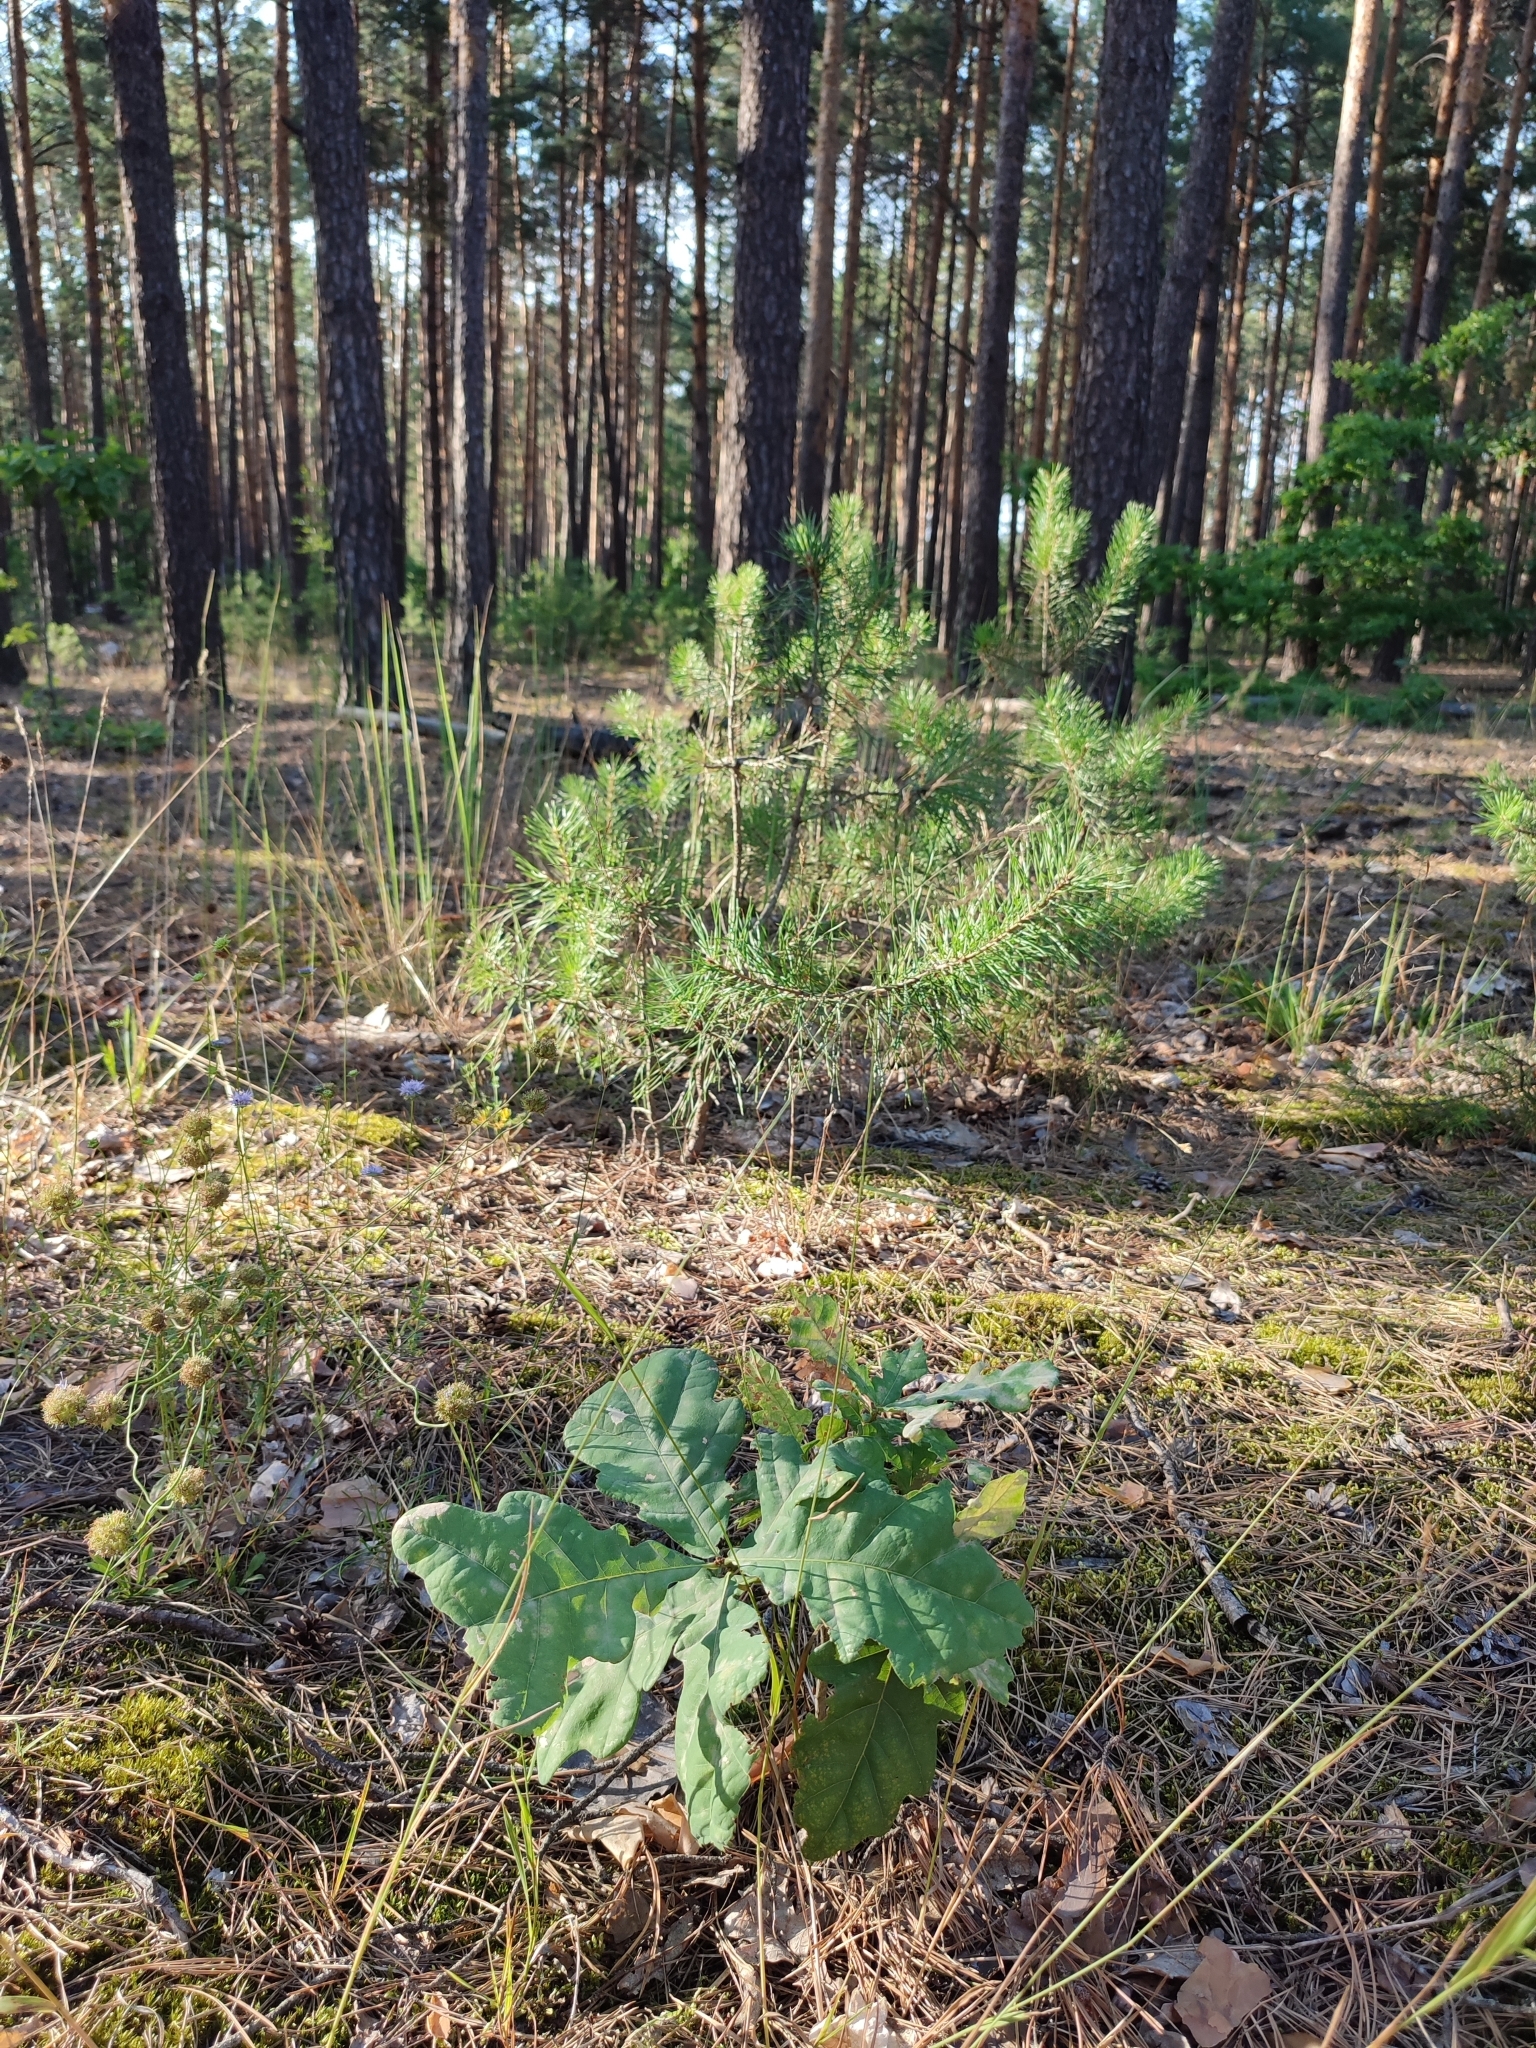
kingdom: Plantae
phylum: Tracheophyta
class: Magnoliopsida
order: Fagales
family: Fagaceae
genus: Quercus
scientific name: Quercus robur
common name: Pedunculate oak
